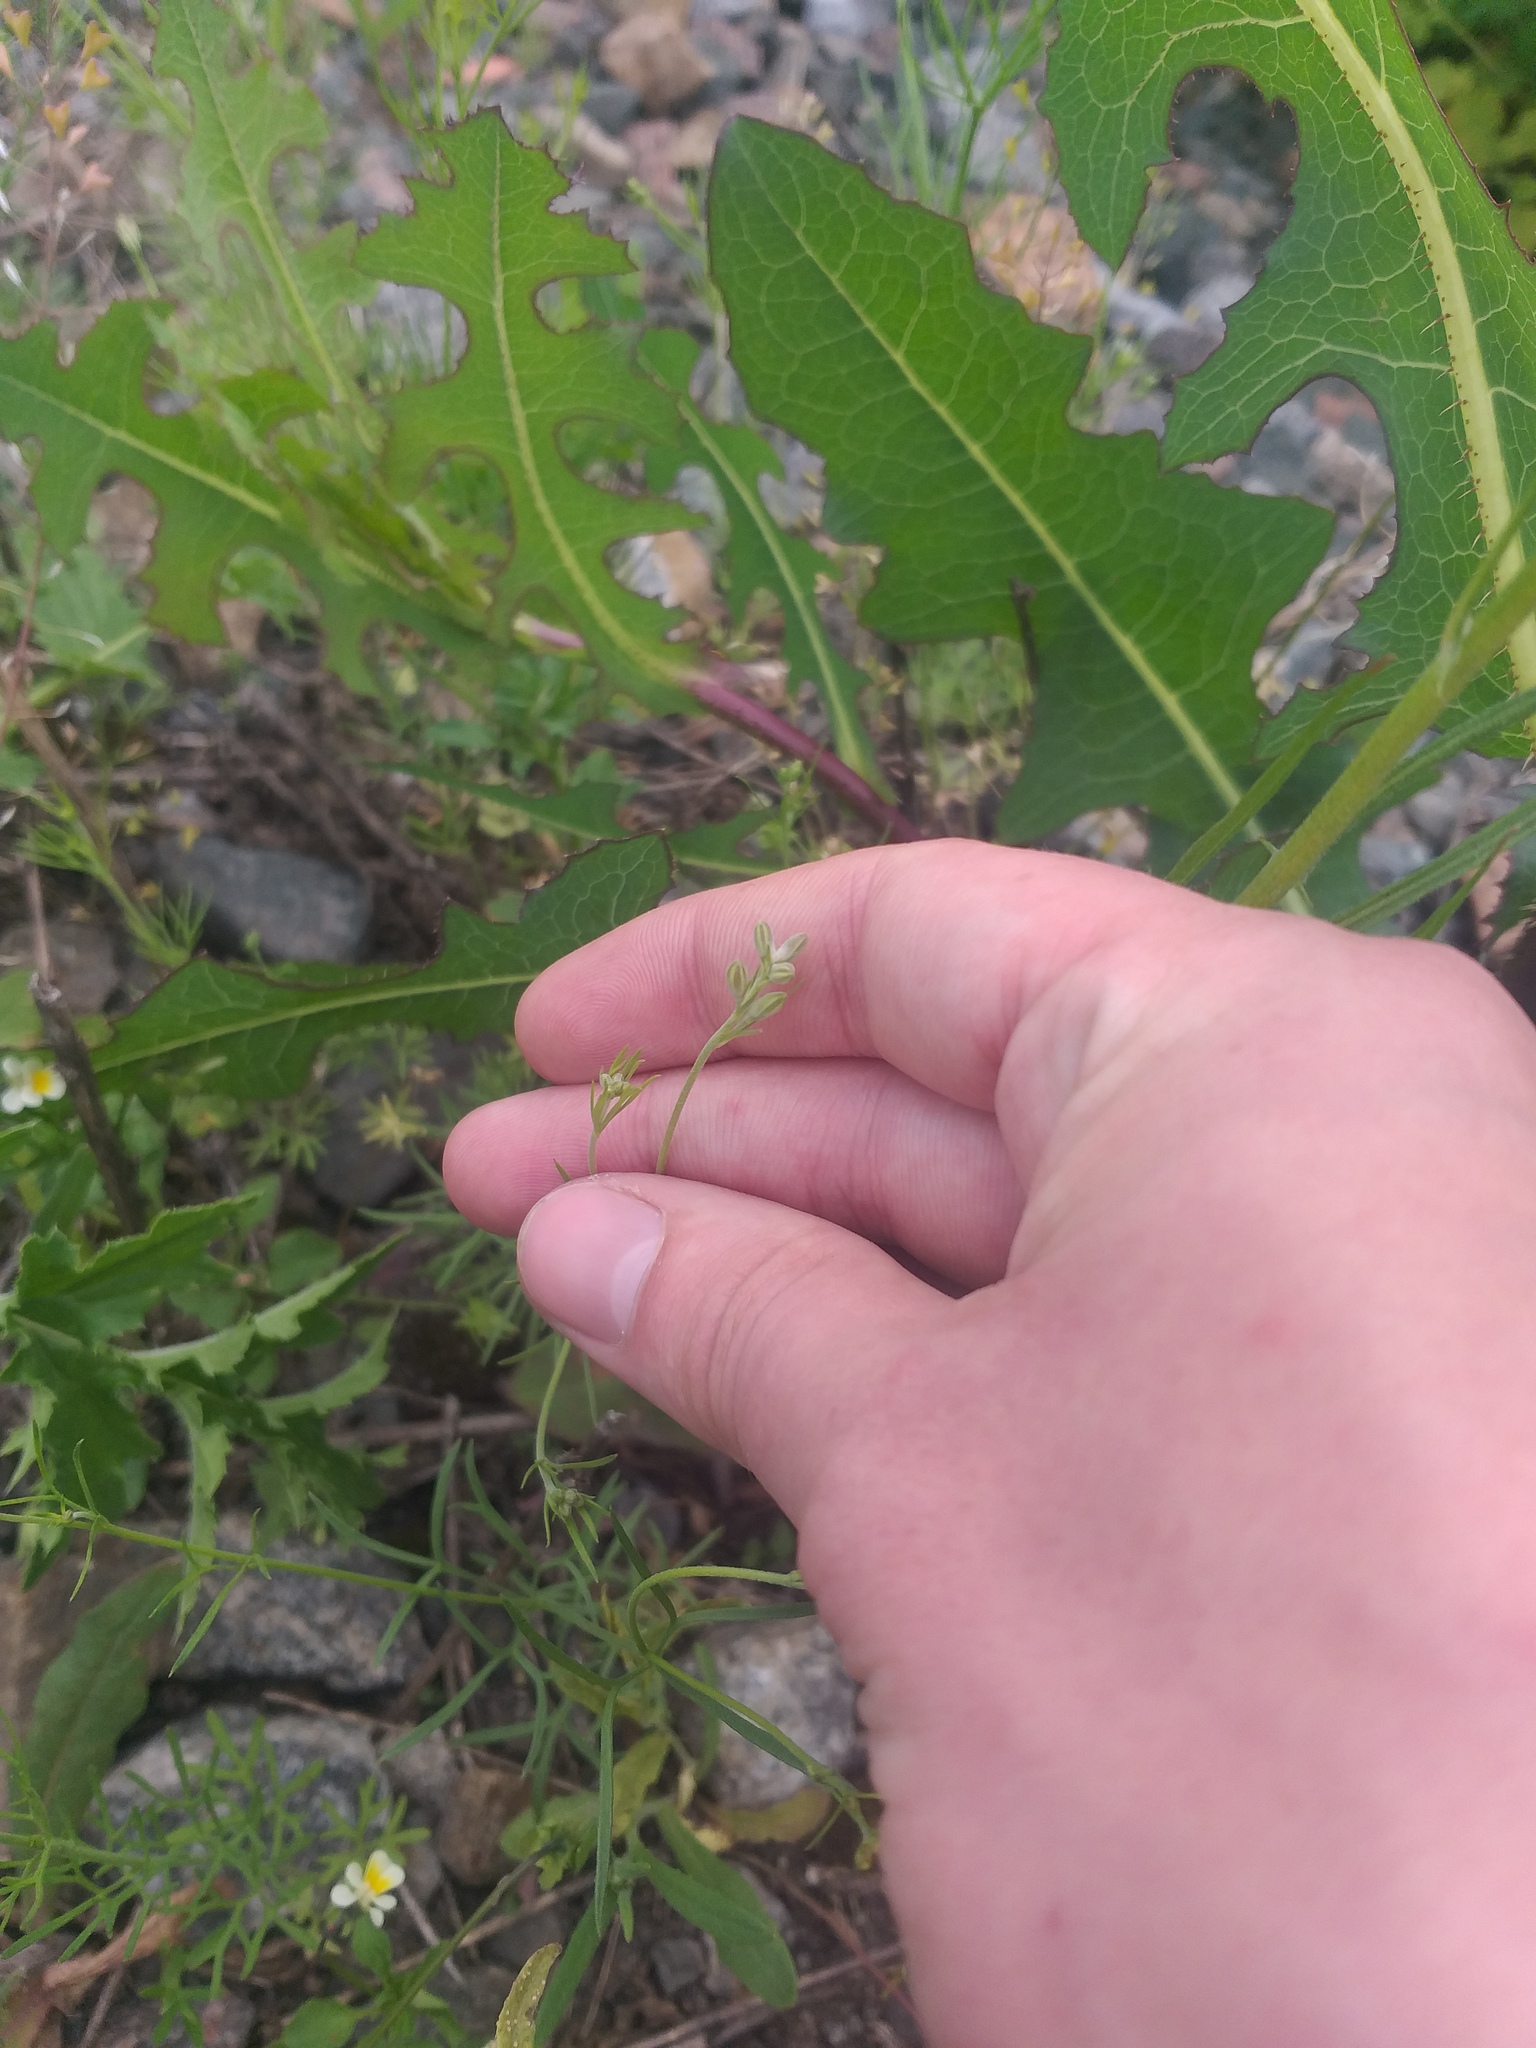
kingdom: Plantae
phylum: Tracheophyta
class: Magnoliopsida
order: Ranunculales
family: Ranunculaceae
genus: Delphinium
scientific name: Delphinium consolida
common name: Branching larkspur
